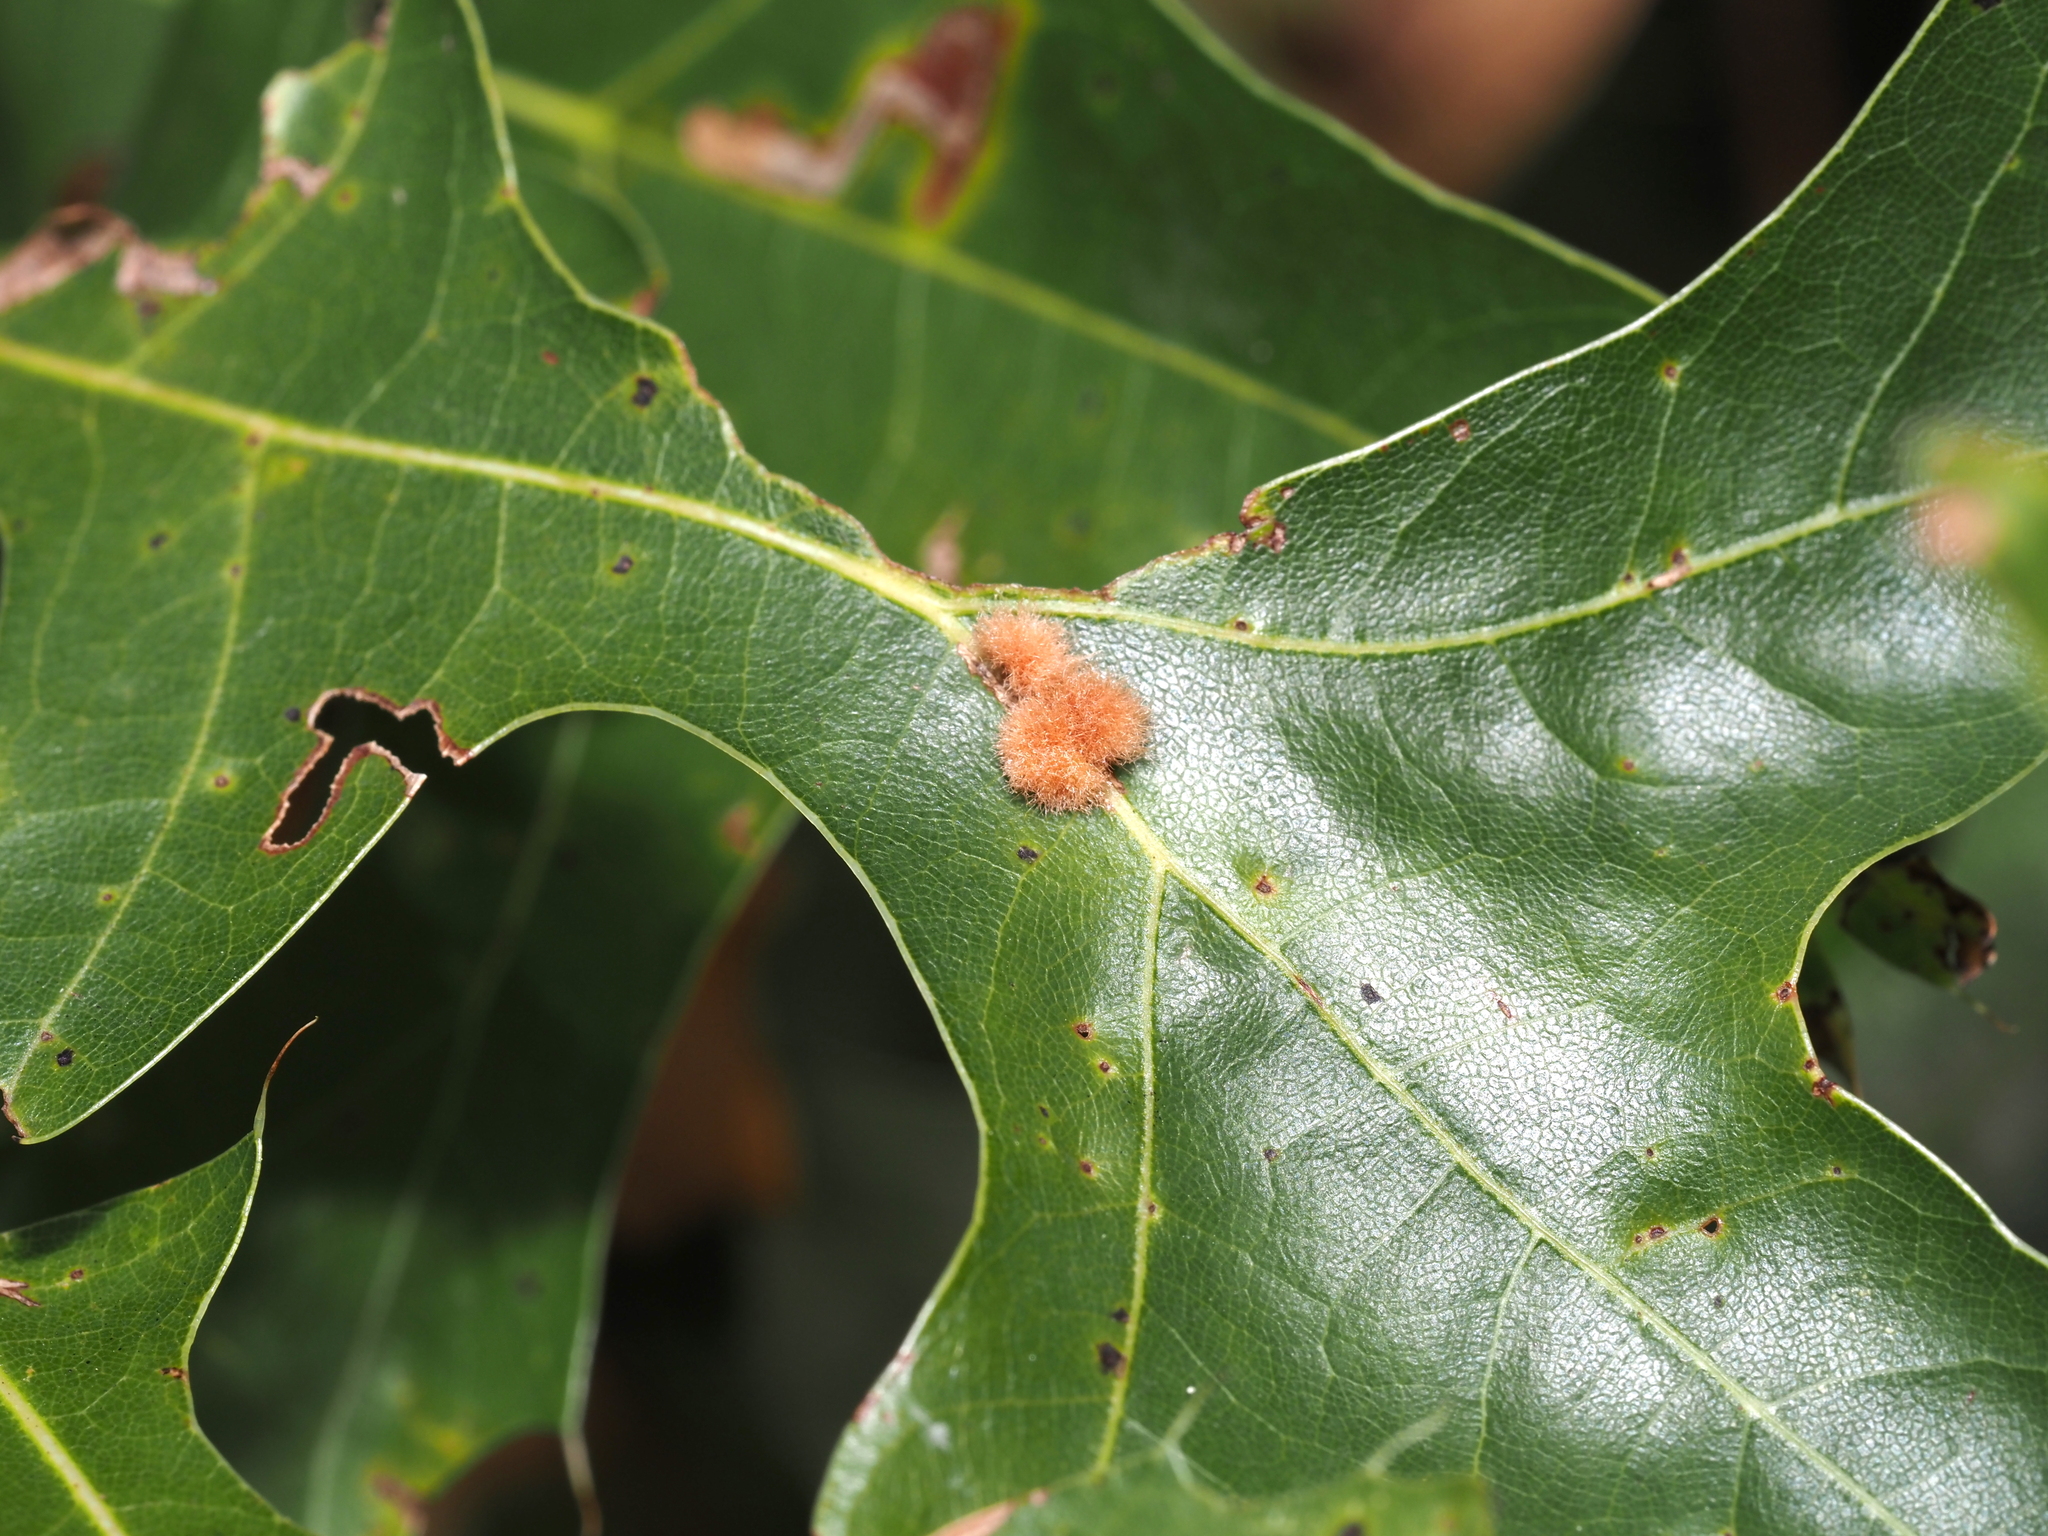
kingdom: Animalia
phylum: Arthropoda
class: Insecta
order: Hymenoptera
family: Cynipidae
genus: Callirhytis
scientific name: Callirhytis
